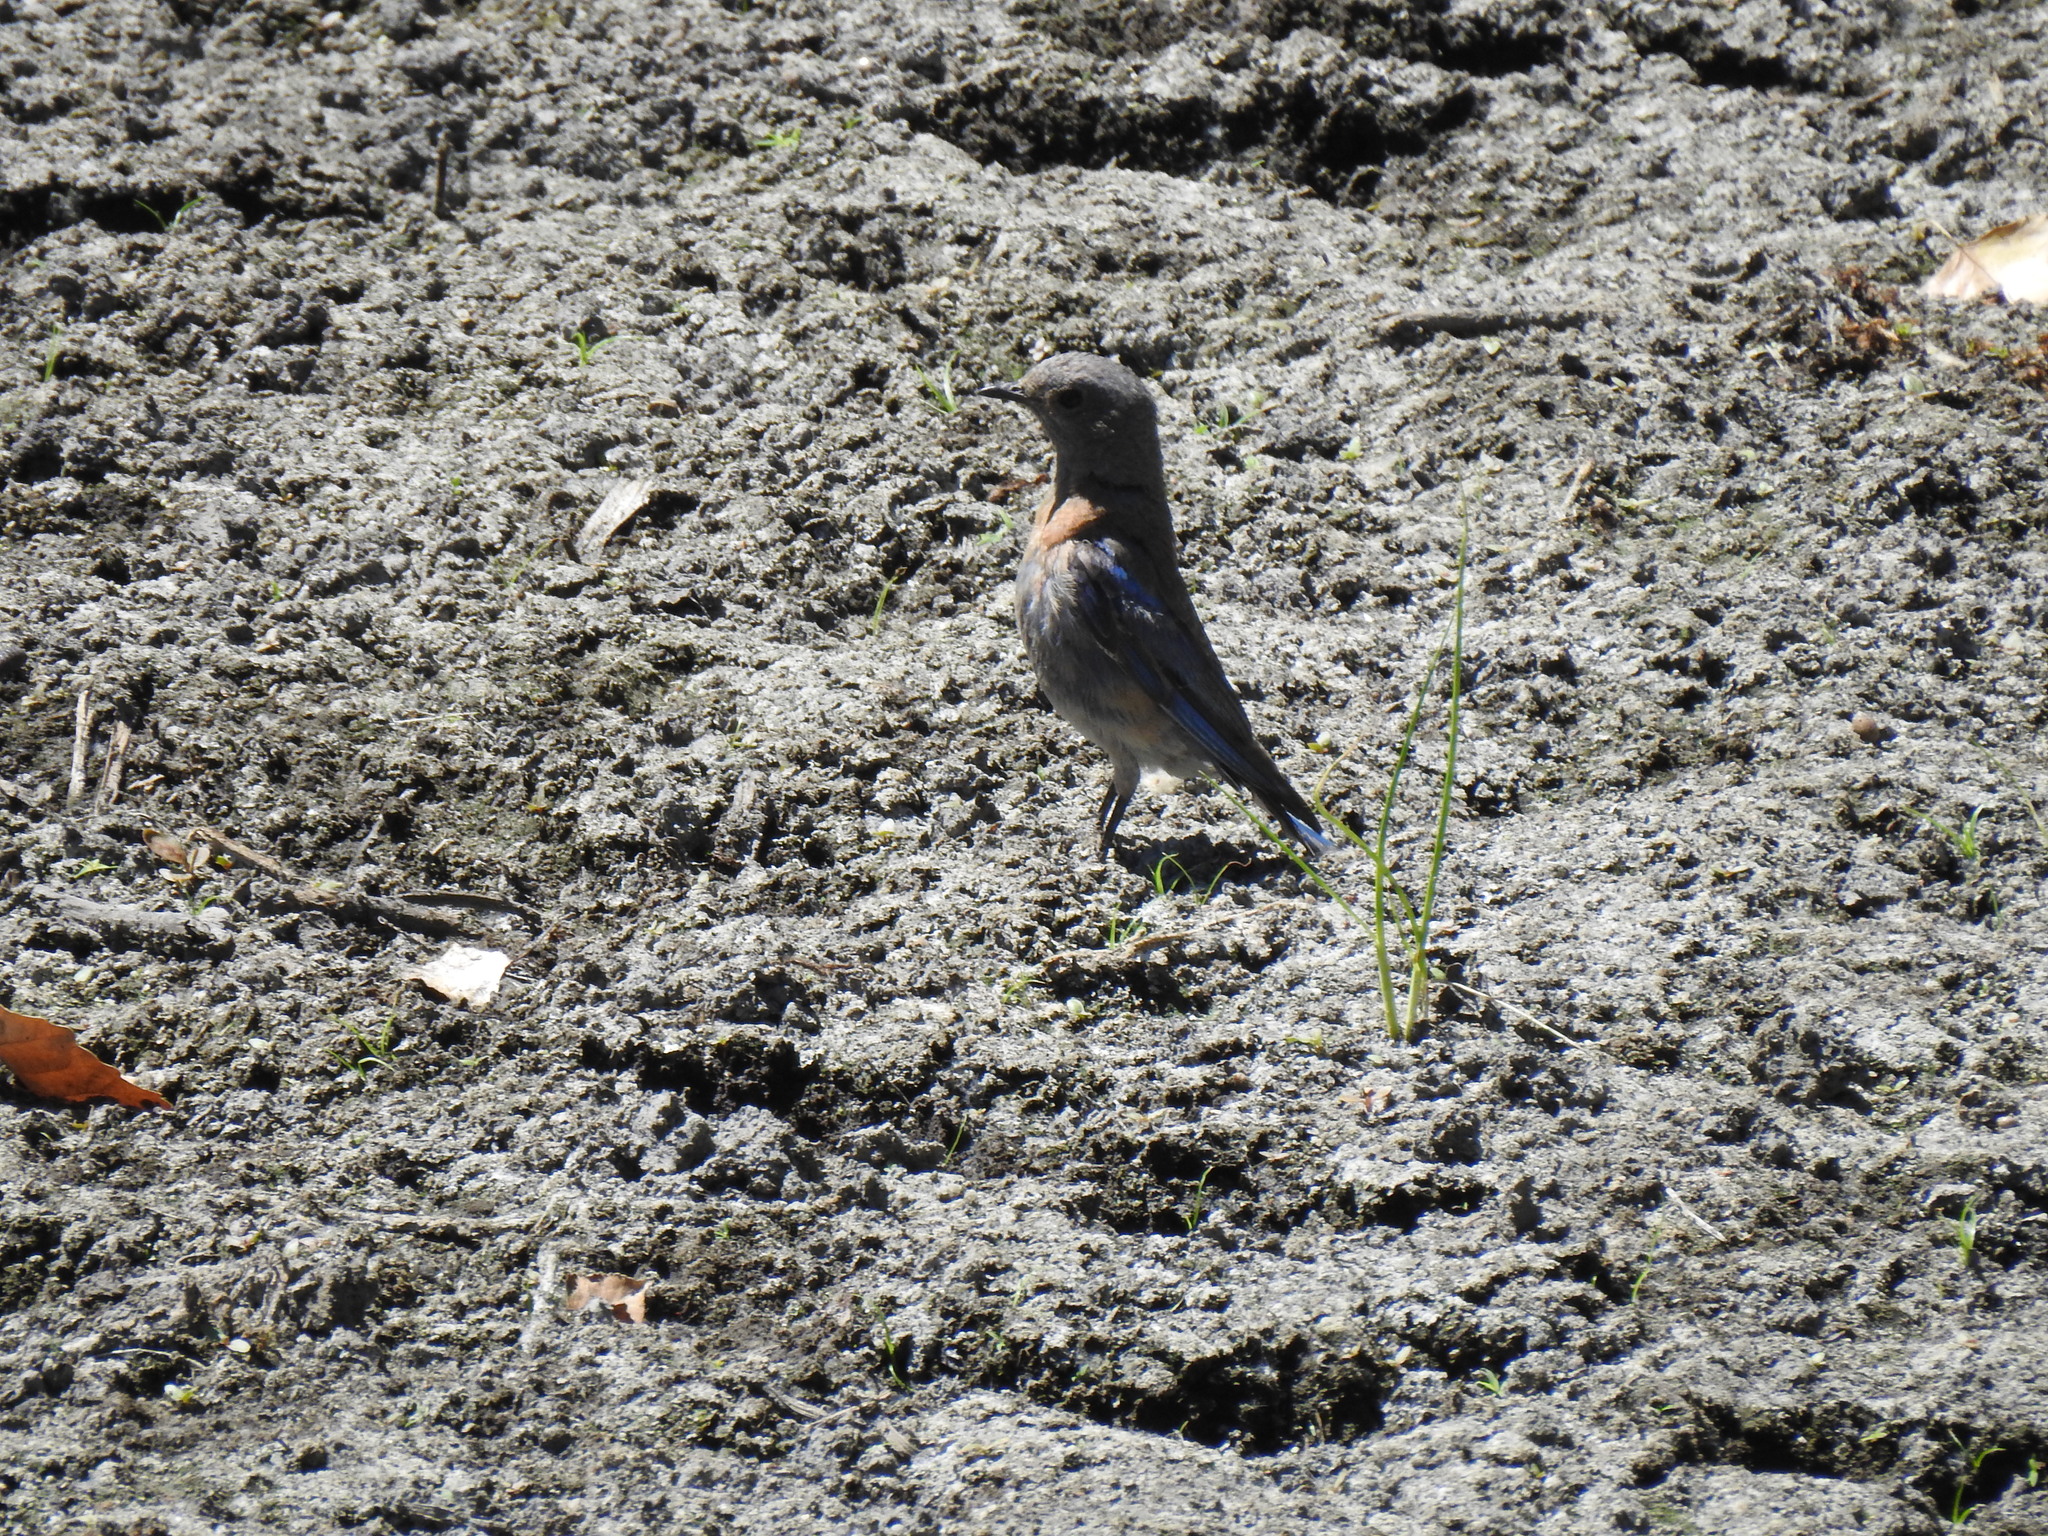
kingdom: Animalia
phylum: Chordata
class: Aves
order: Passeriformes
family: Turdidae
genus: Sialia
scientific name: Sialia mexicana
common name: Western bluebird
